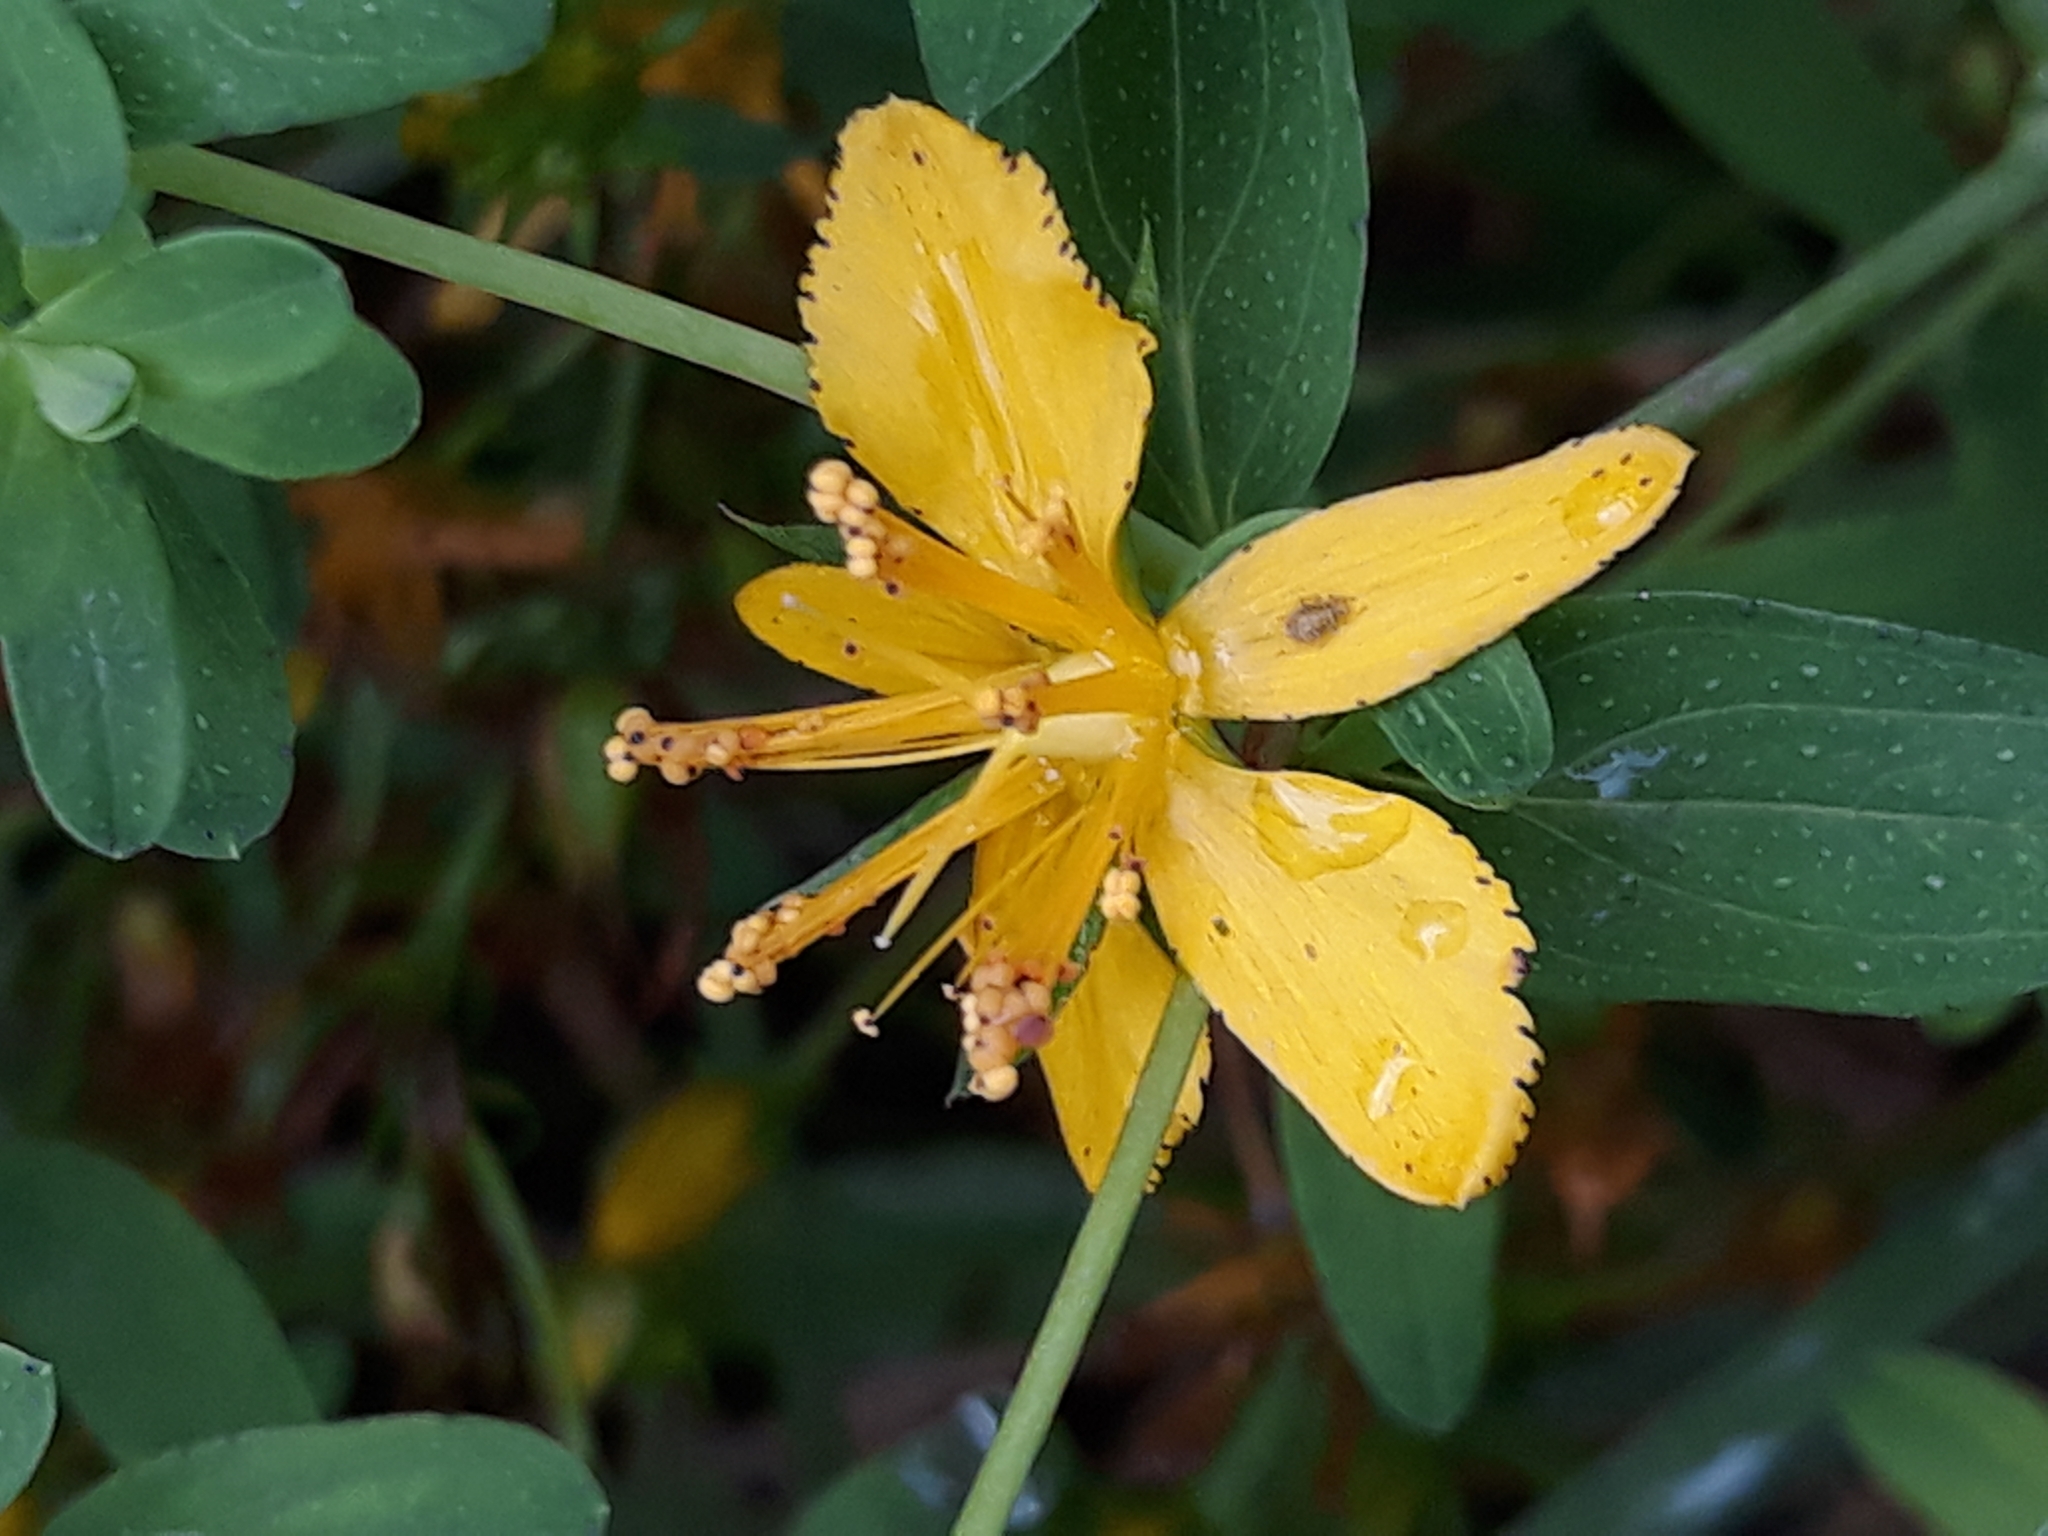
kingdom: Plantae
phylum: Tracheophyta
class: Magnoliopsida
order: Malpighiales
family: Hypericaceae
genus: Hypericum
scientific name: Hypericum perforatum
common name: Common st. johnswort
